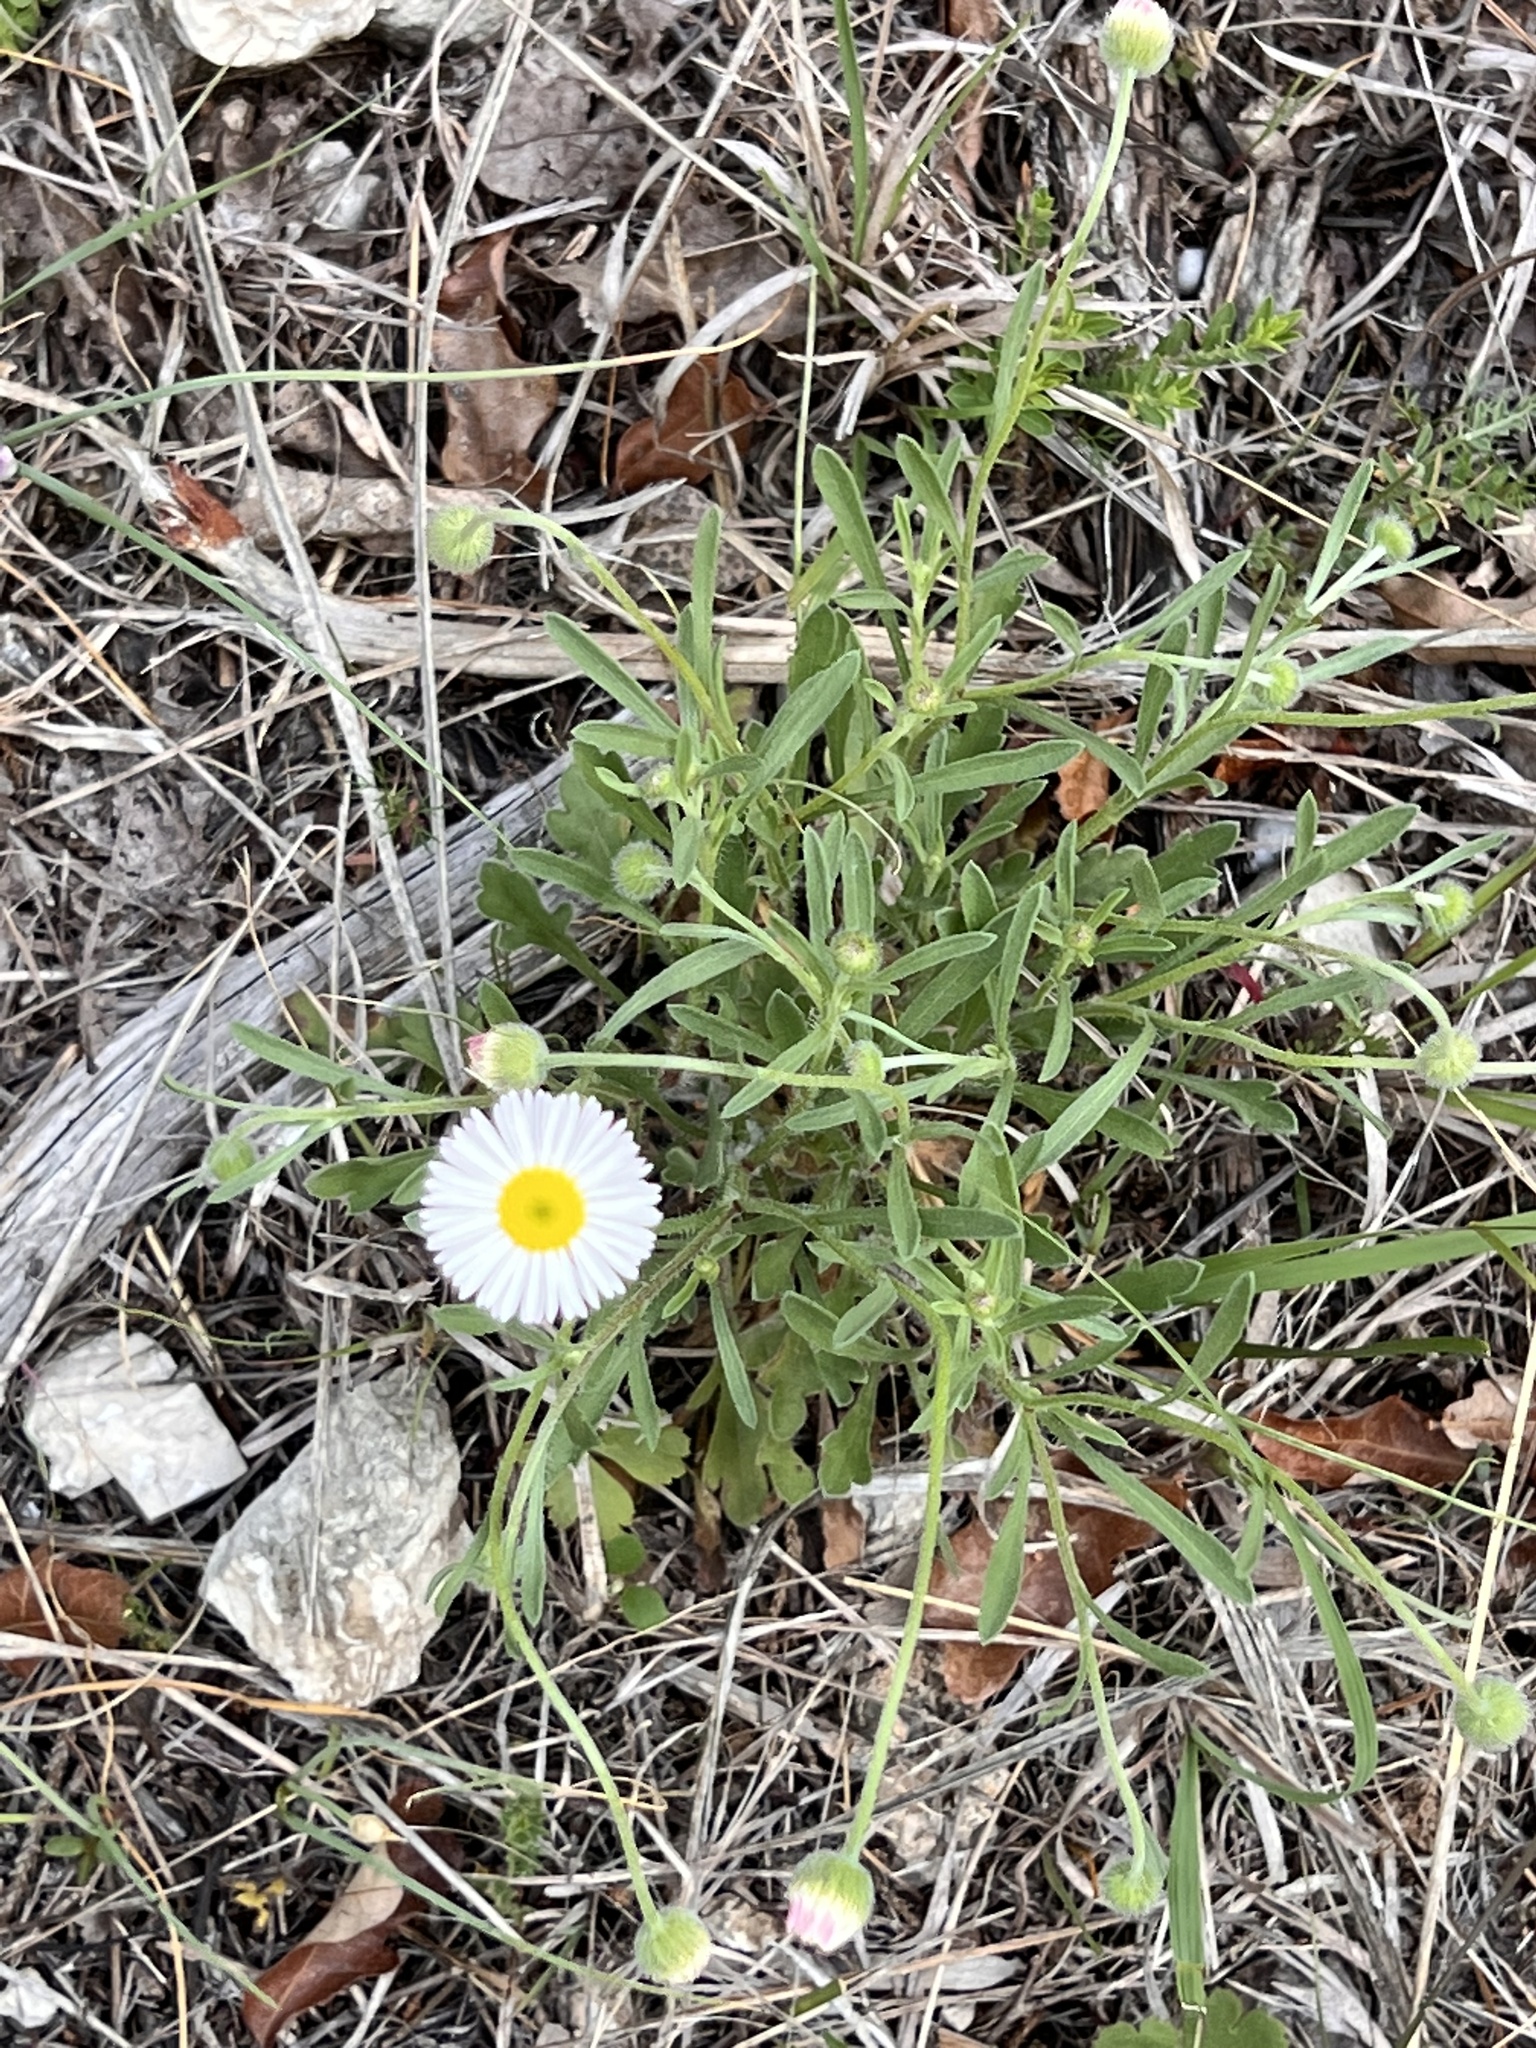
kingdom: Plantae
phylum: Tracheophyta
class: Magnoliopsida
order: Asterales
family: Asteraceae
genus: Erigeron
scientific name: Erigeron modestus
